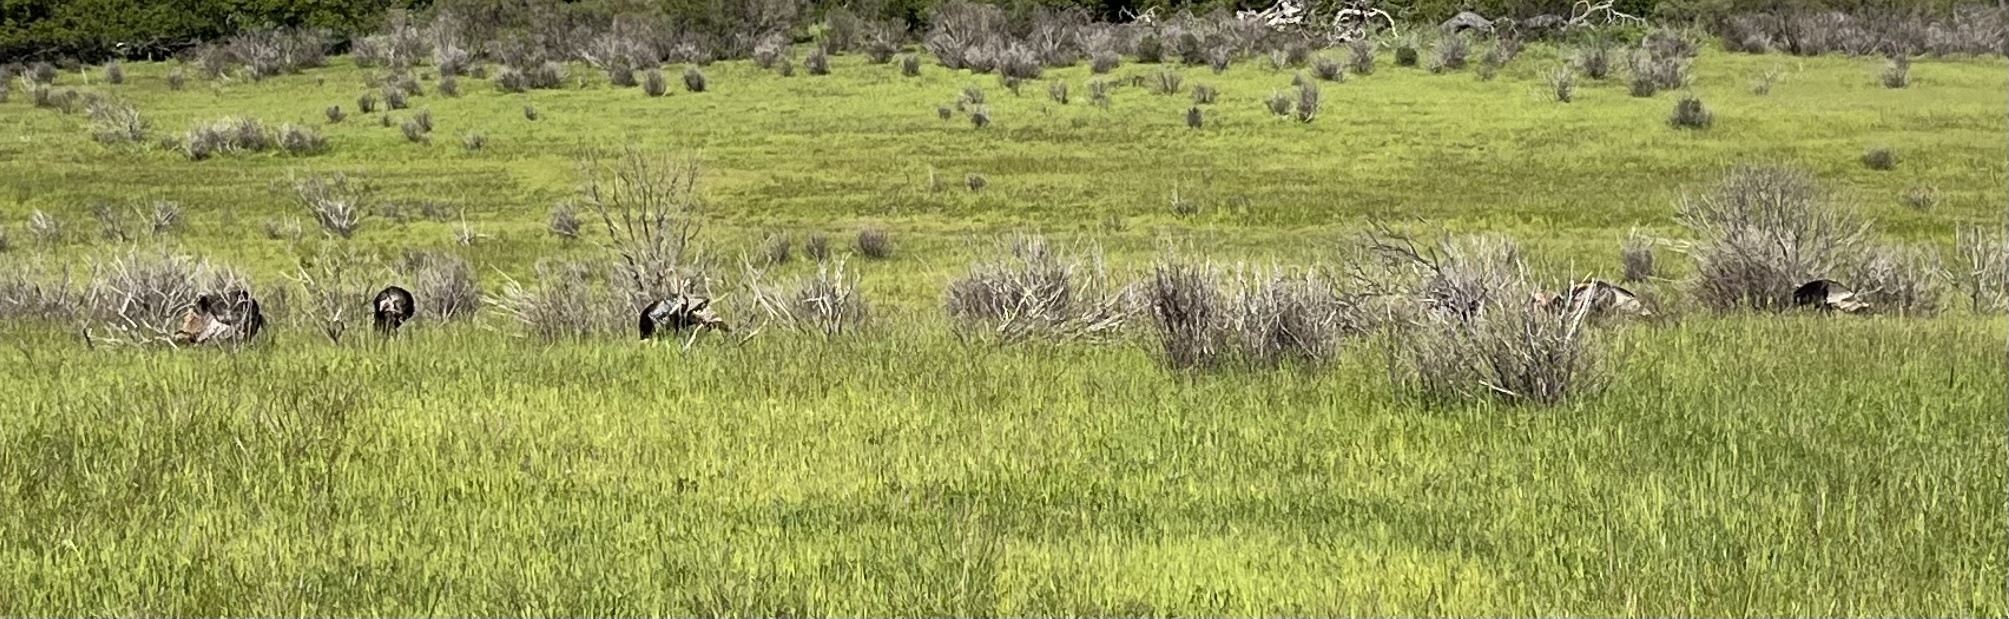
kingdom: Animalia
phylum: Chordata
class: Aves
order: Galliformes
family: Phasianidae
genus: Meleagris
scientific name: Meleagris gallopavo
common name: Wild turkey
